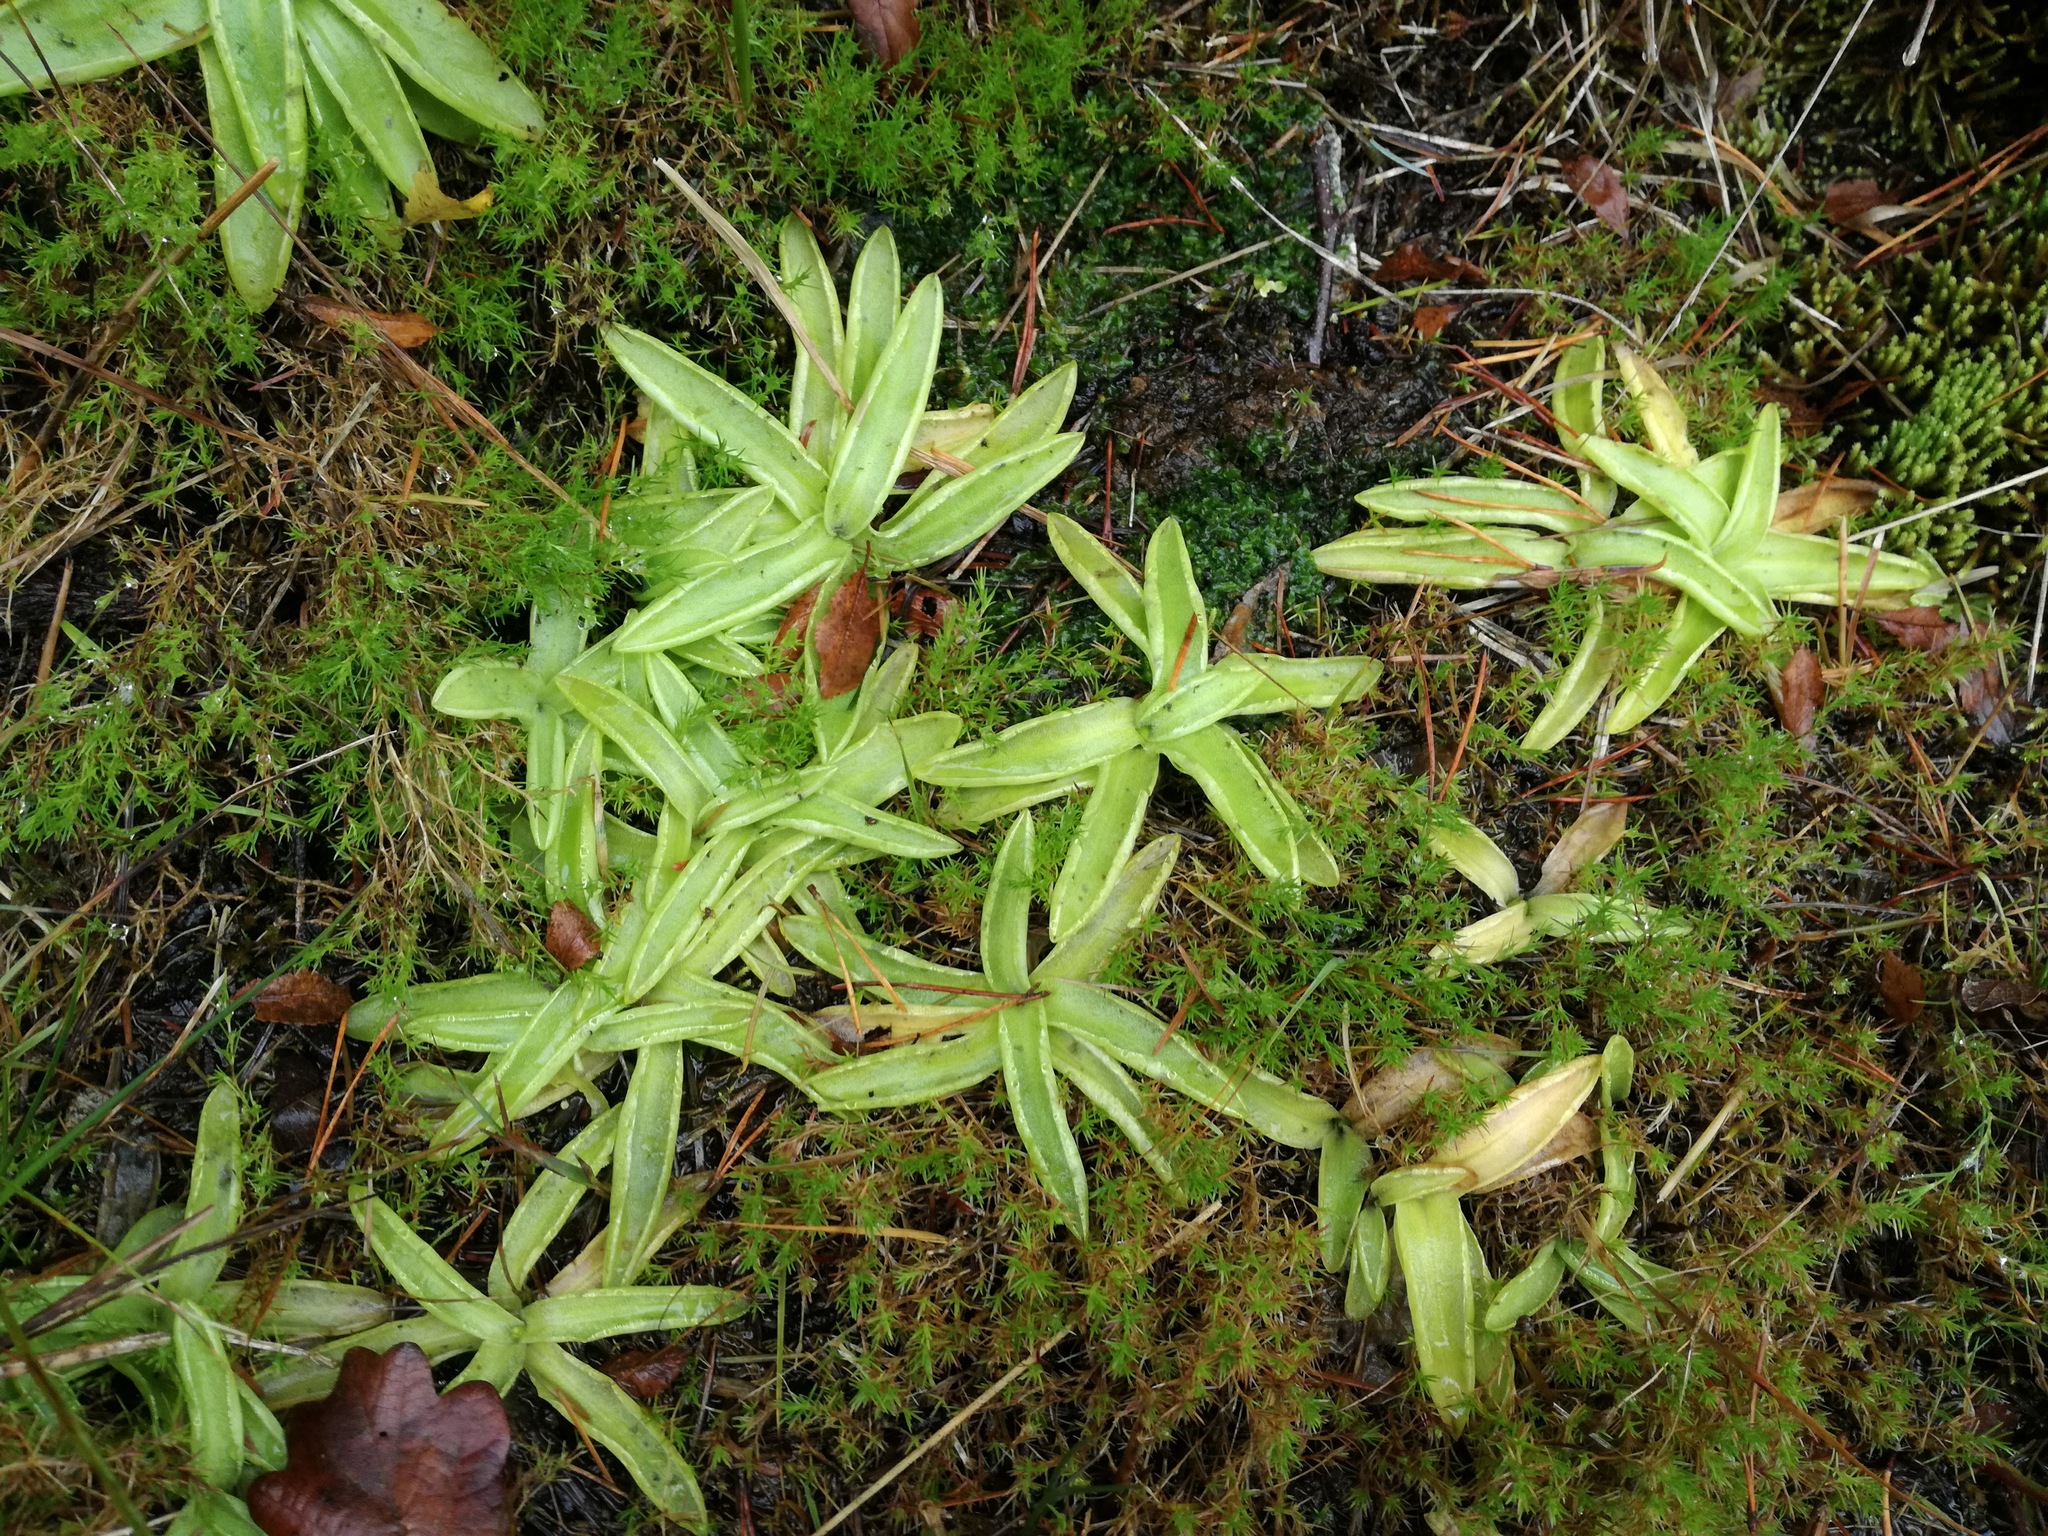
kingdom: Plantae
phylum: Tracheophyta
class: Magnoliopsida
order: Lamiales
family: Lentibulariaceae
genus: Pinguicula
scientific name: Pinguicula vulgaris
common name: Common butterwort
